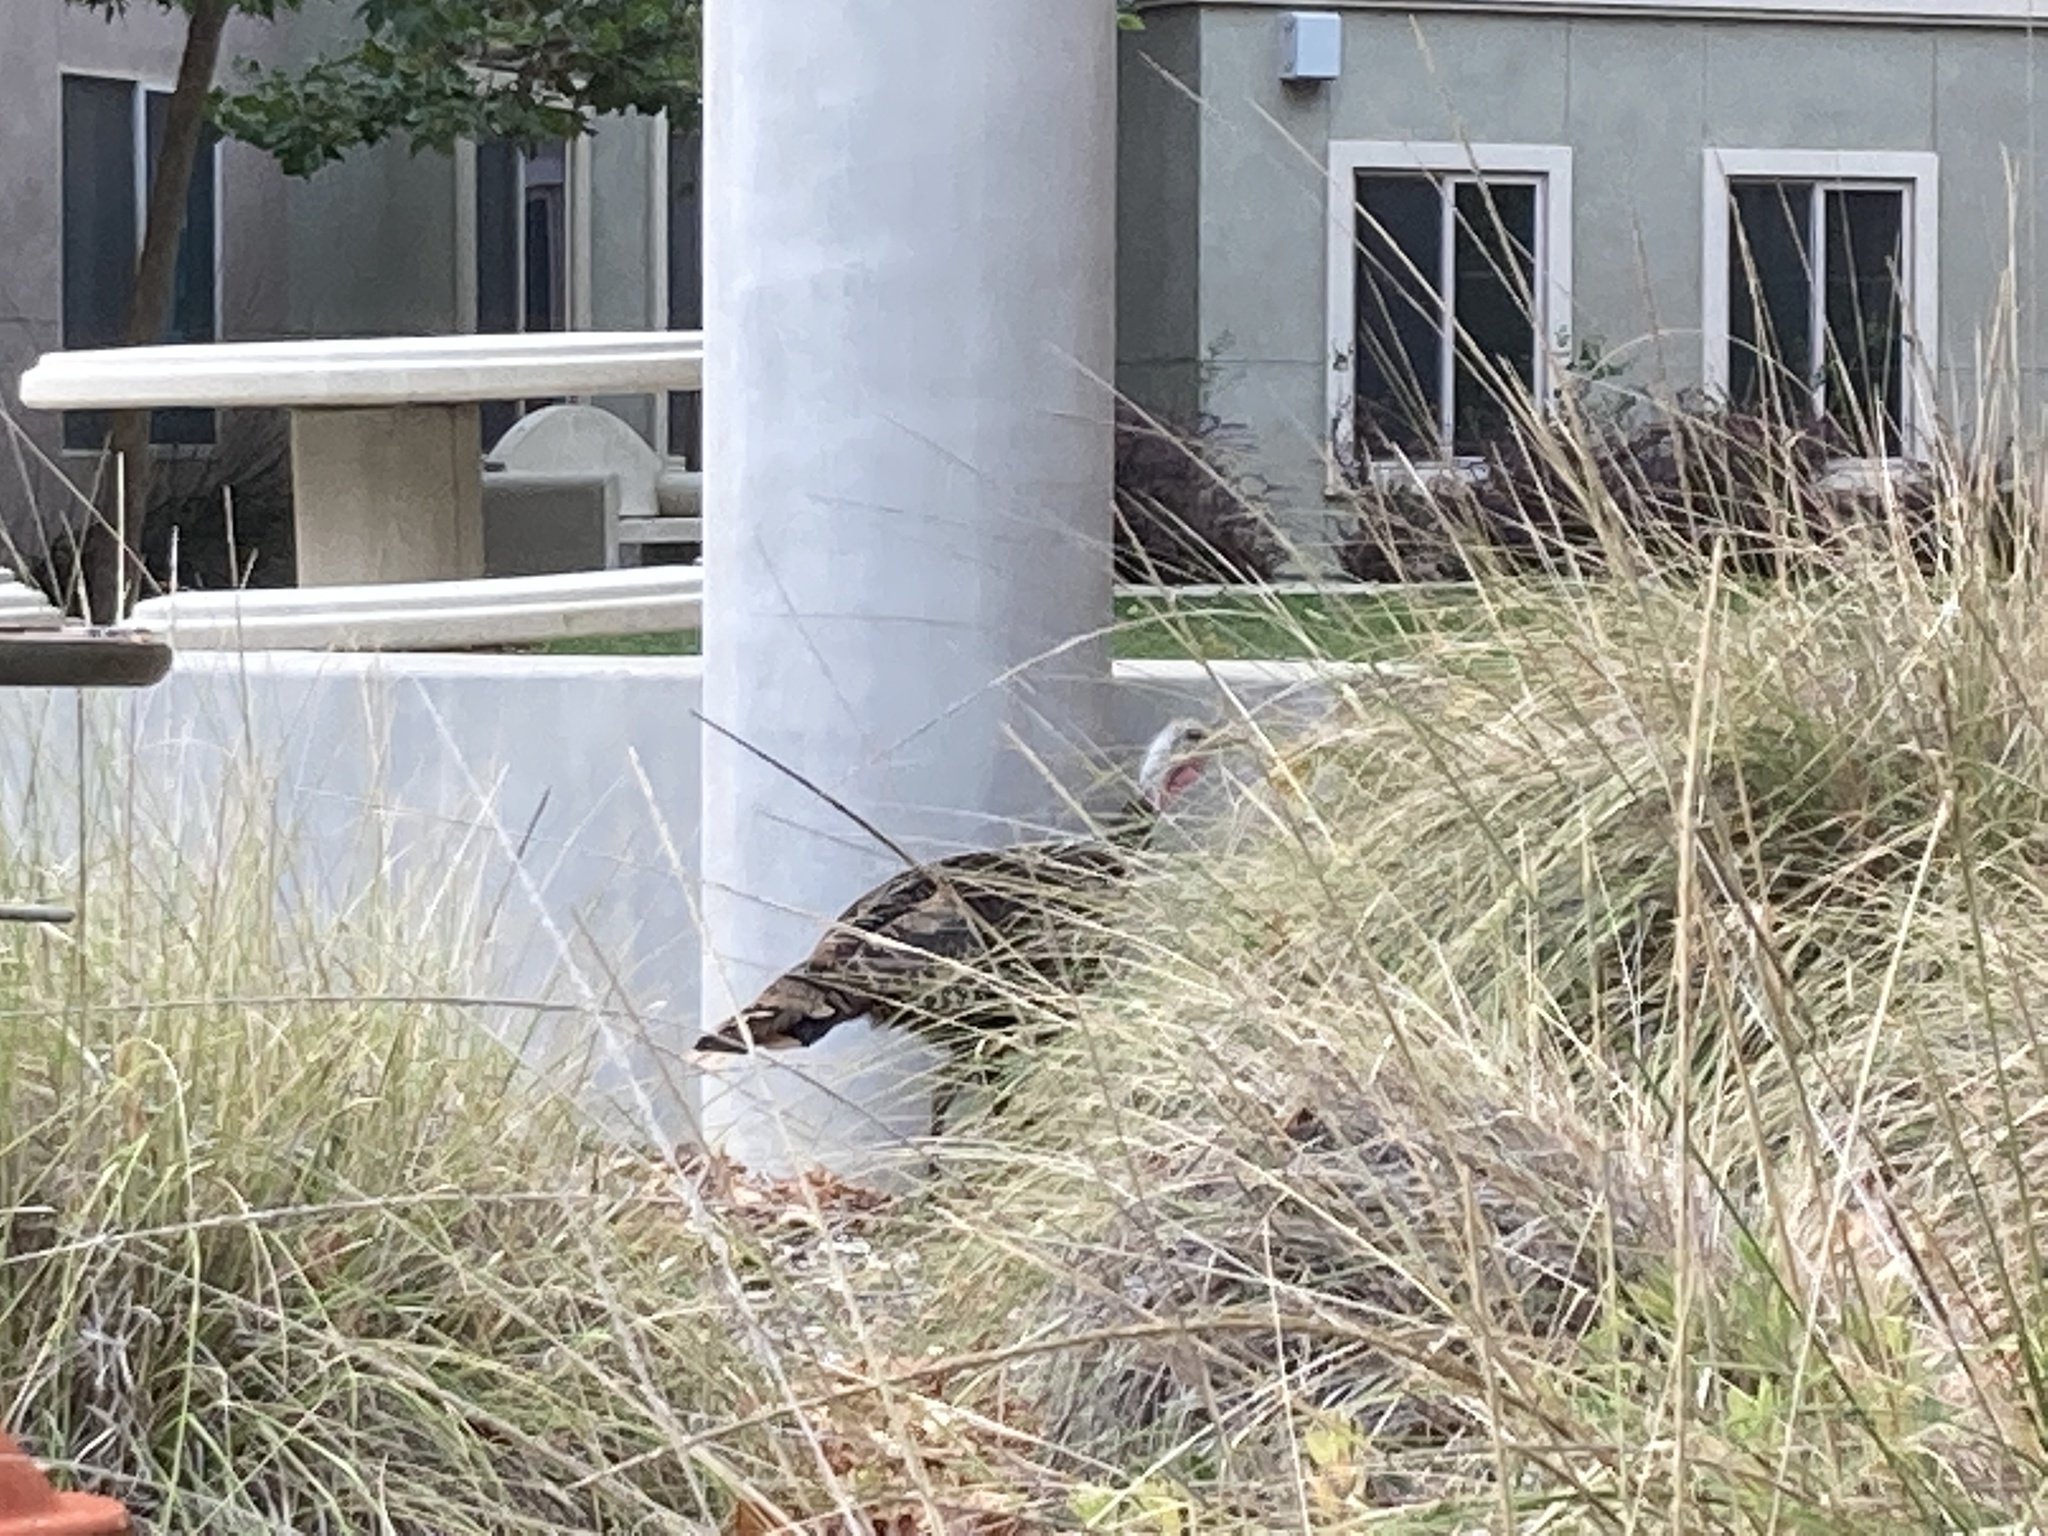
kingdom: Animalia
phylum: Chordata
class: Aves
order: Galliformes
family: Phasianidae
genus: Meleagris
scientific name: Meleagris gallopavo
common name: Wild turkey
